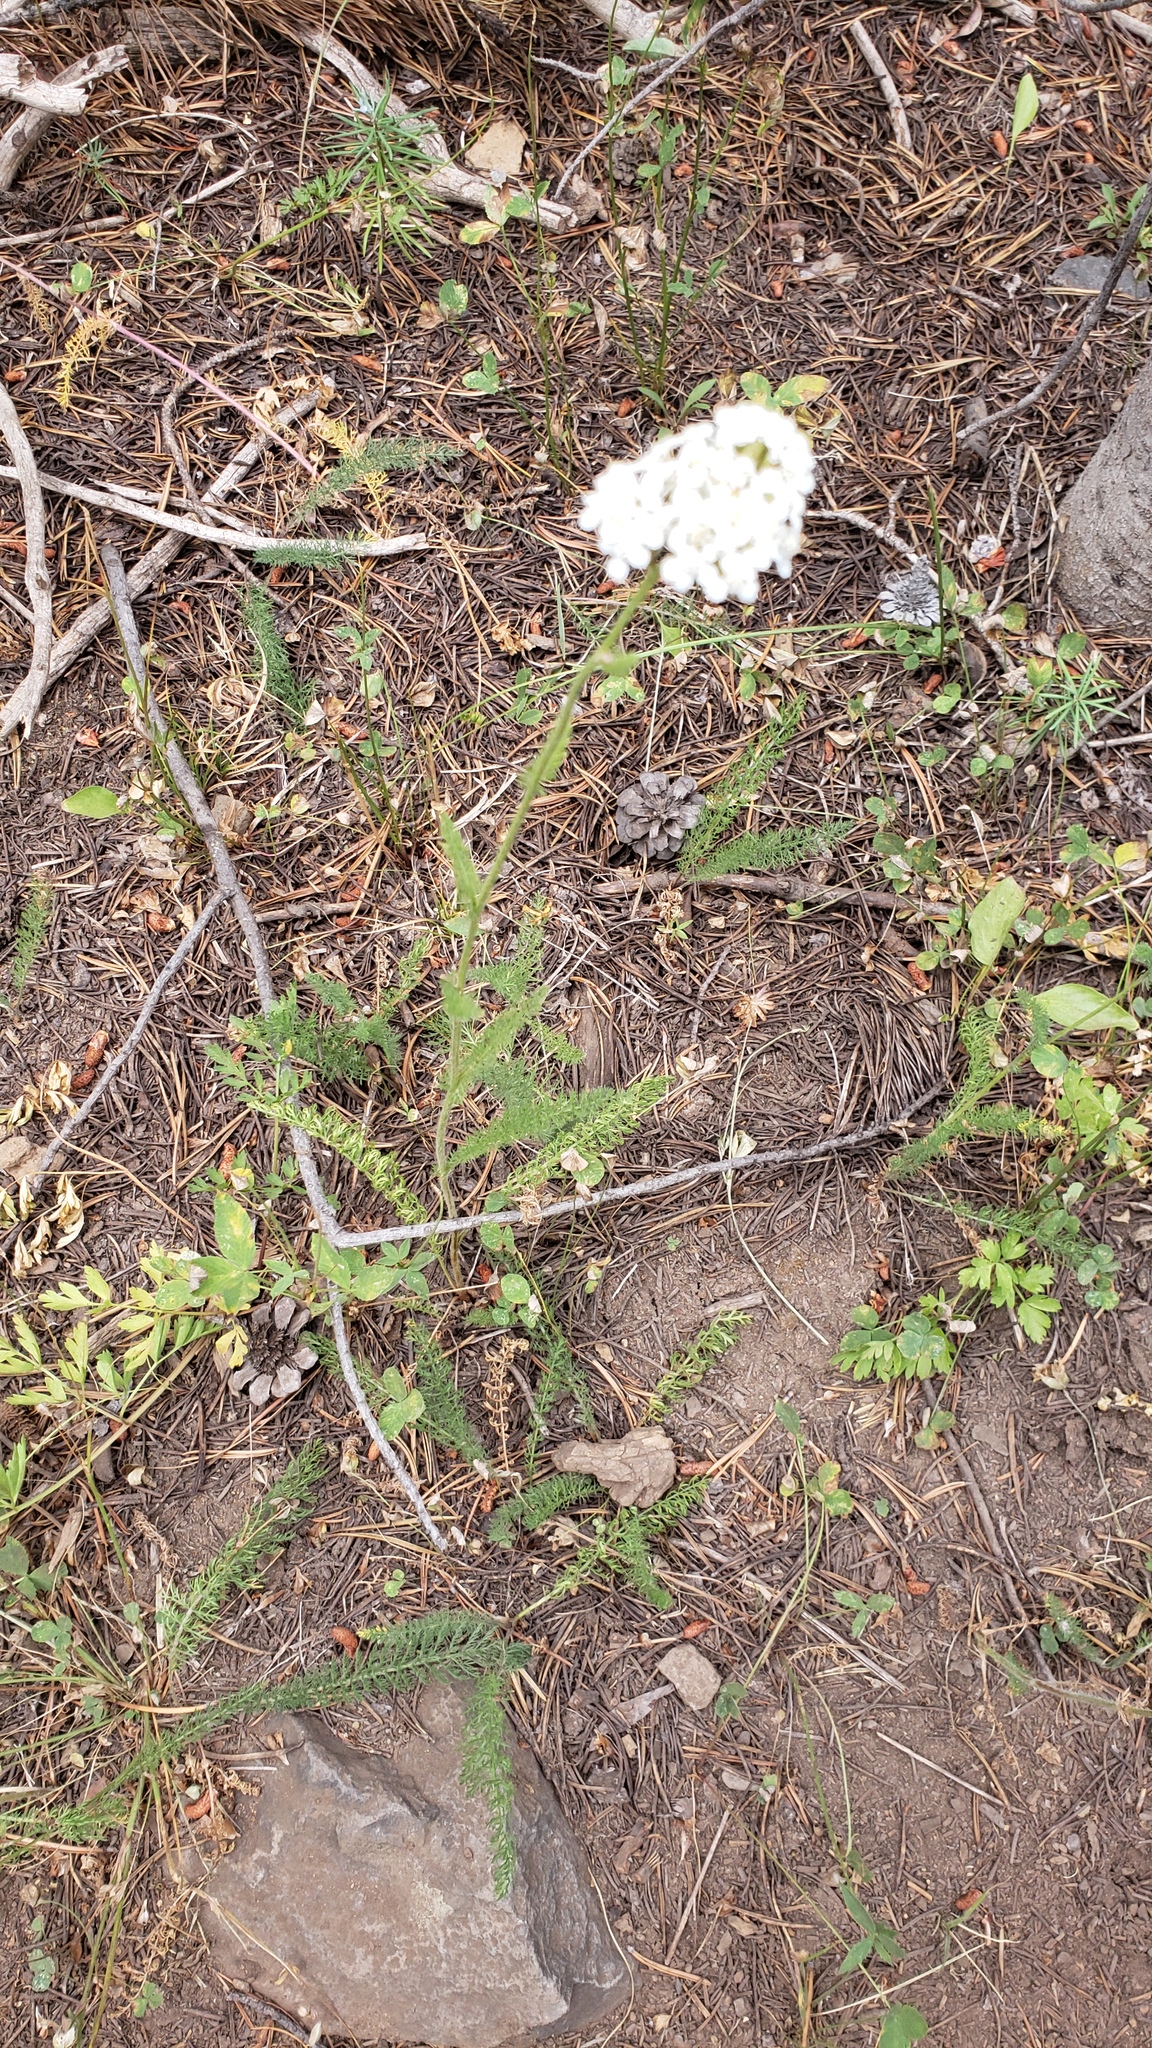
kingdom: Plantae
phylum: Tracheophyta
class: Magnoliopsida
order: Asterales
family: Asteraceae
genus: Achillea
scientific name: Achillea millefolium
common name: Yarrow
